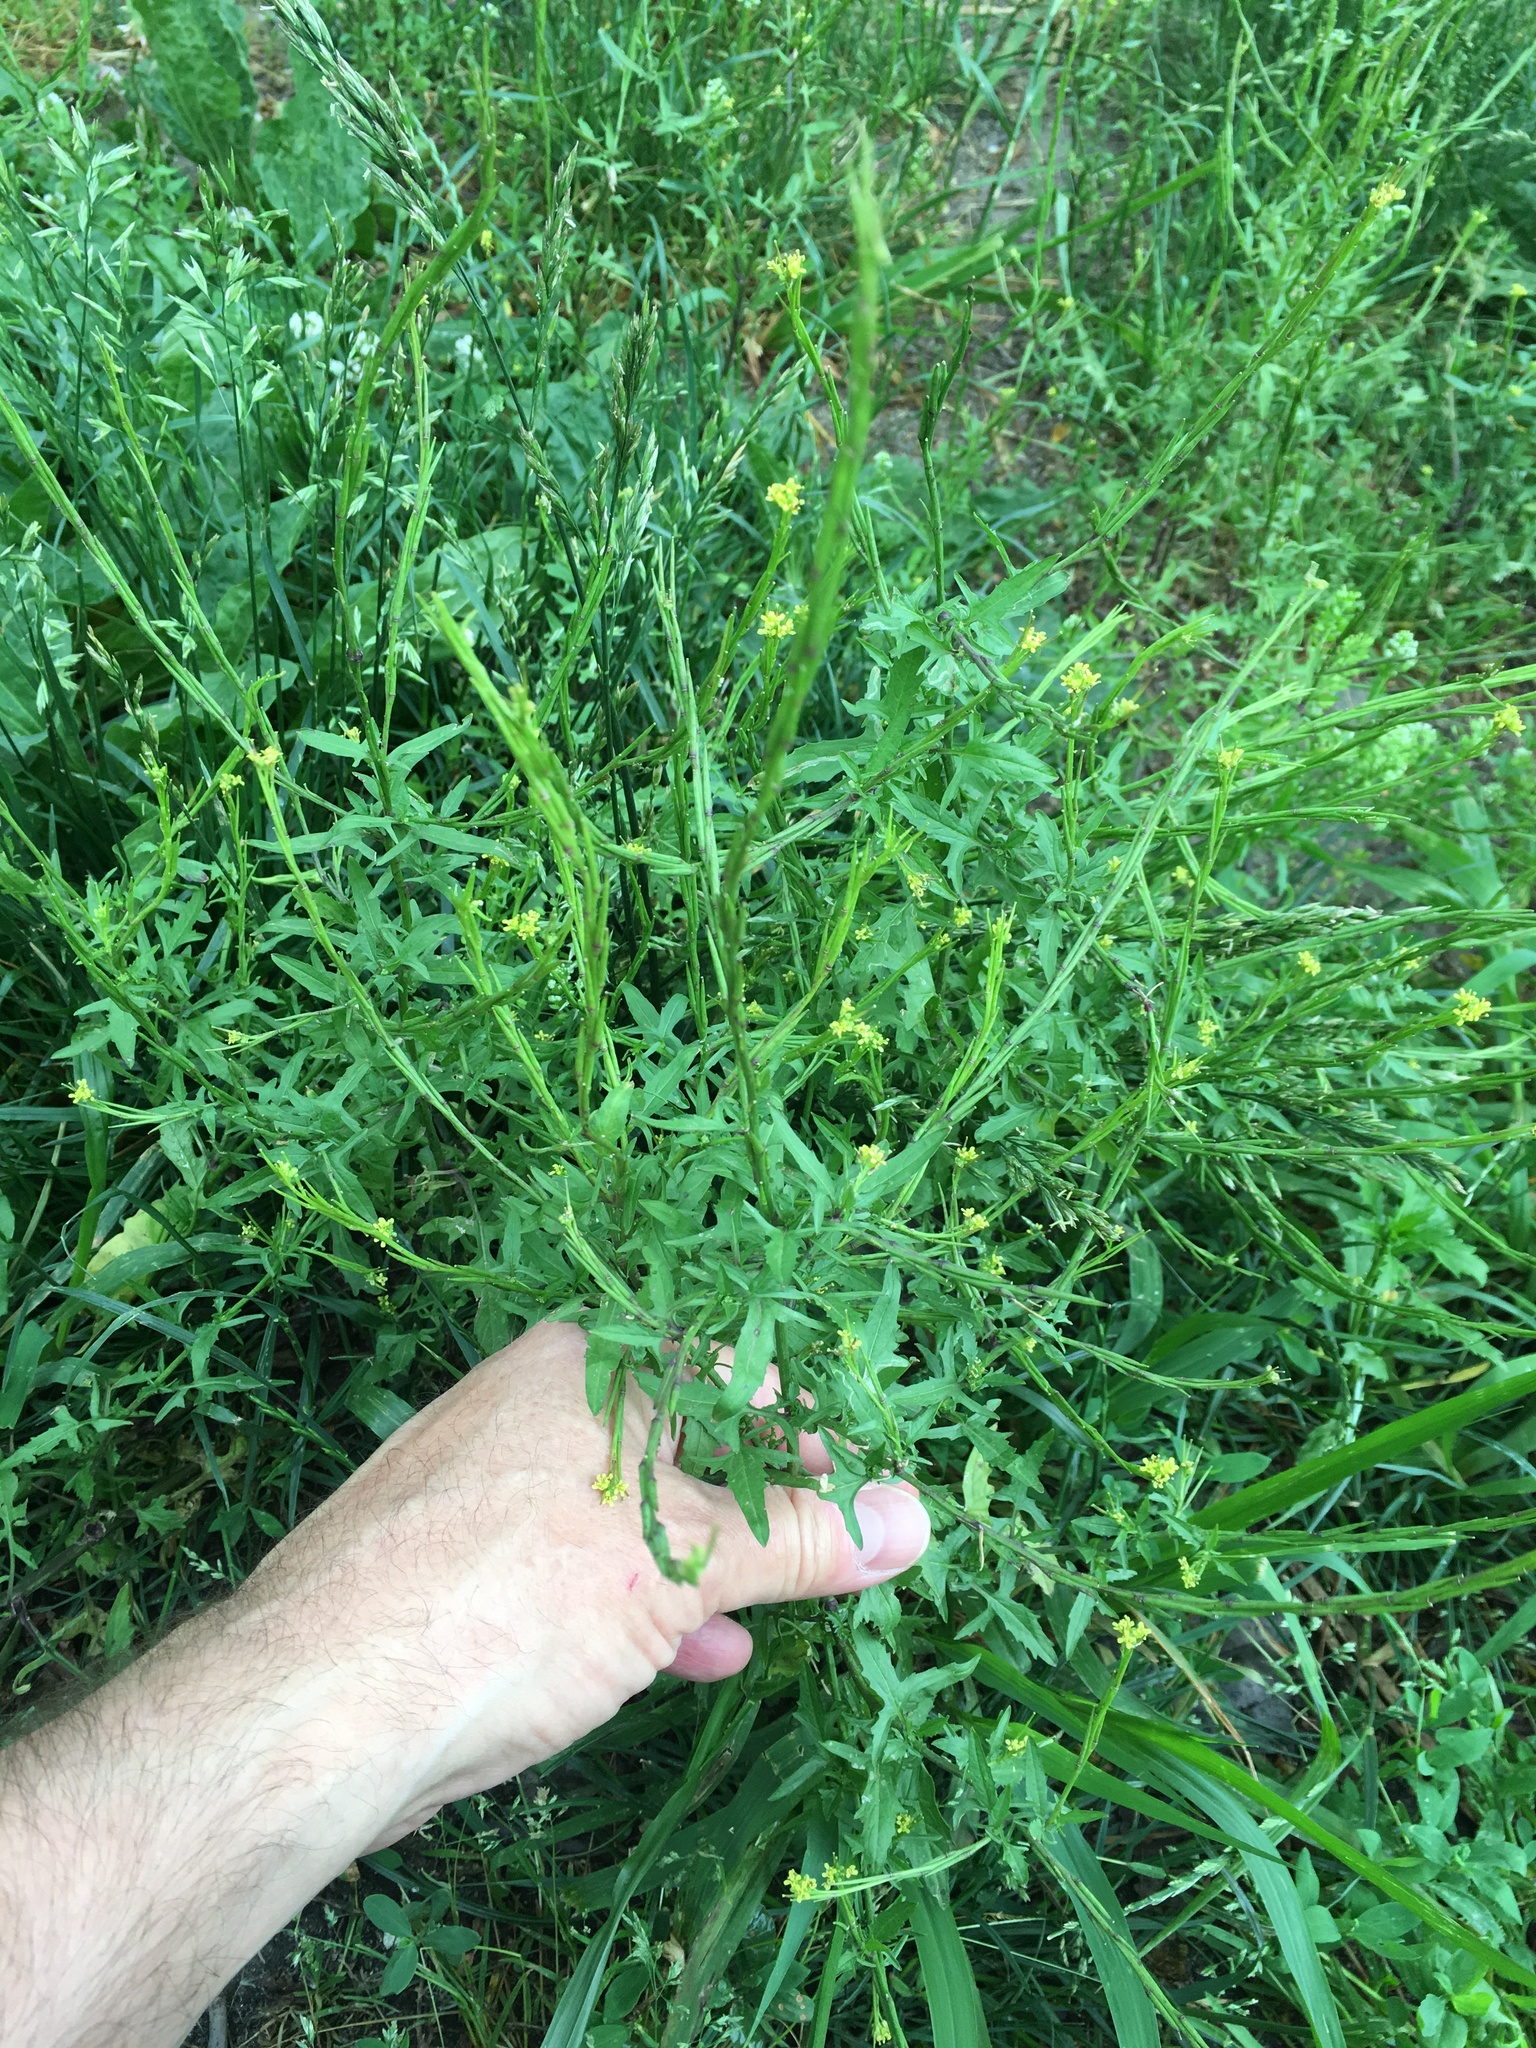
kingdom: Plantae
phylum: Tracheophyta
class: Magnoliopsida
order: Brassicales
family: Brassicaceae
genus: Sisymbrium
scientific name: Sisymbrium officinale
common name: Hedge mustard
